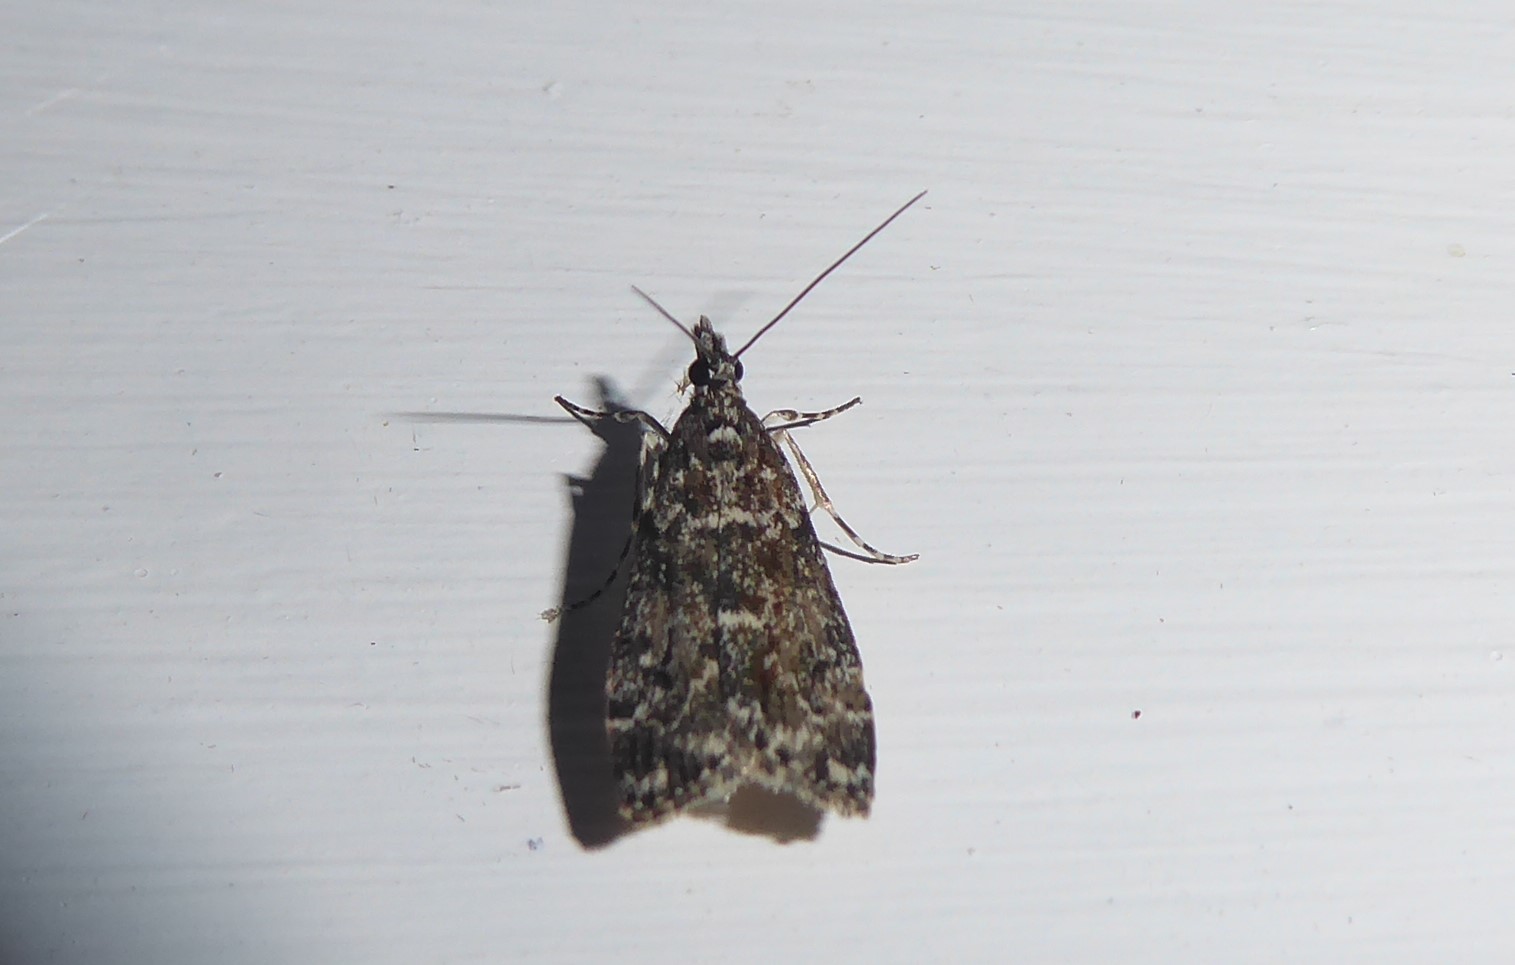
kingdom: Animalia
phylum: Arthropoda
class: Insecta
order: Lepidoptera
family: Crambidae
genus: Eudonia
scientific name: Eudonia philerga
